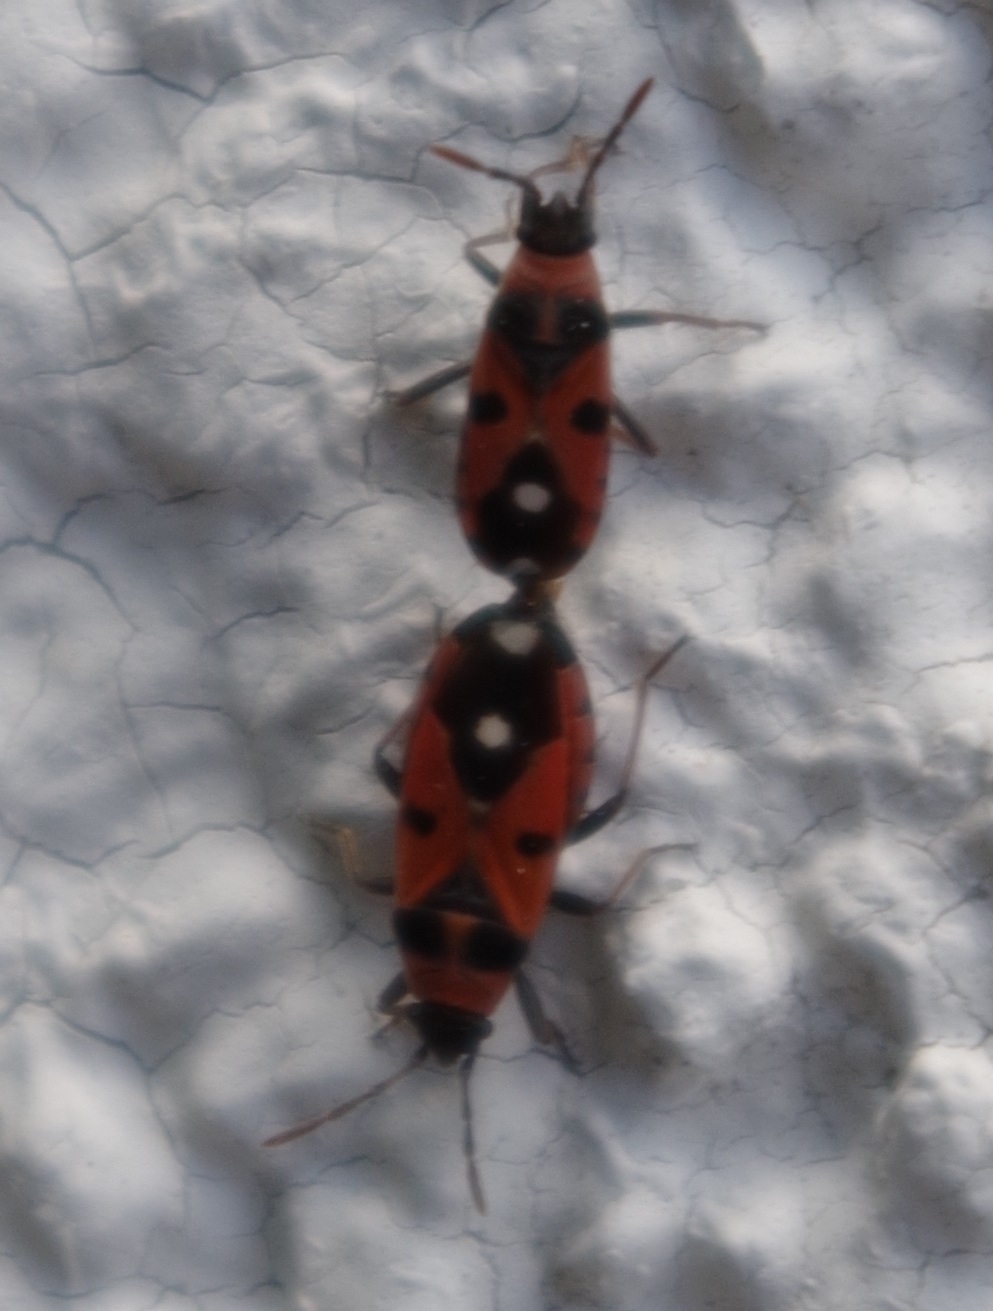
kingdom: Animalia
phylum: Arthropoda
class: Insecta
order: Hemiptera
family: Lygaeidae
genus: Horvathiolus
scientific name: Horvathiolus superbus
